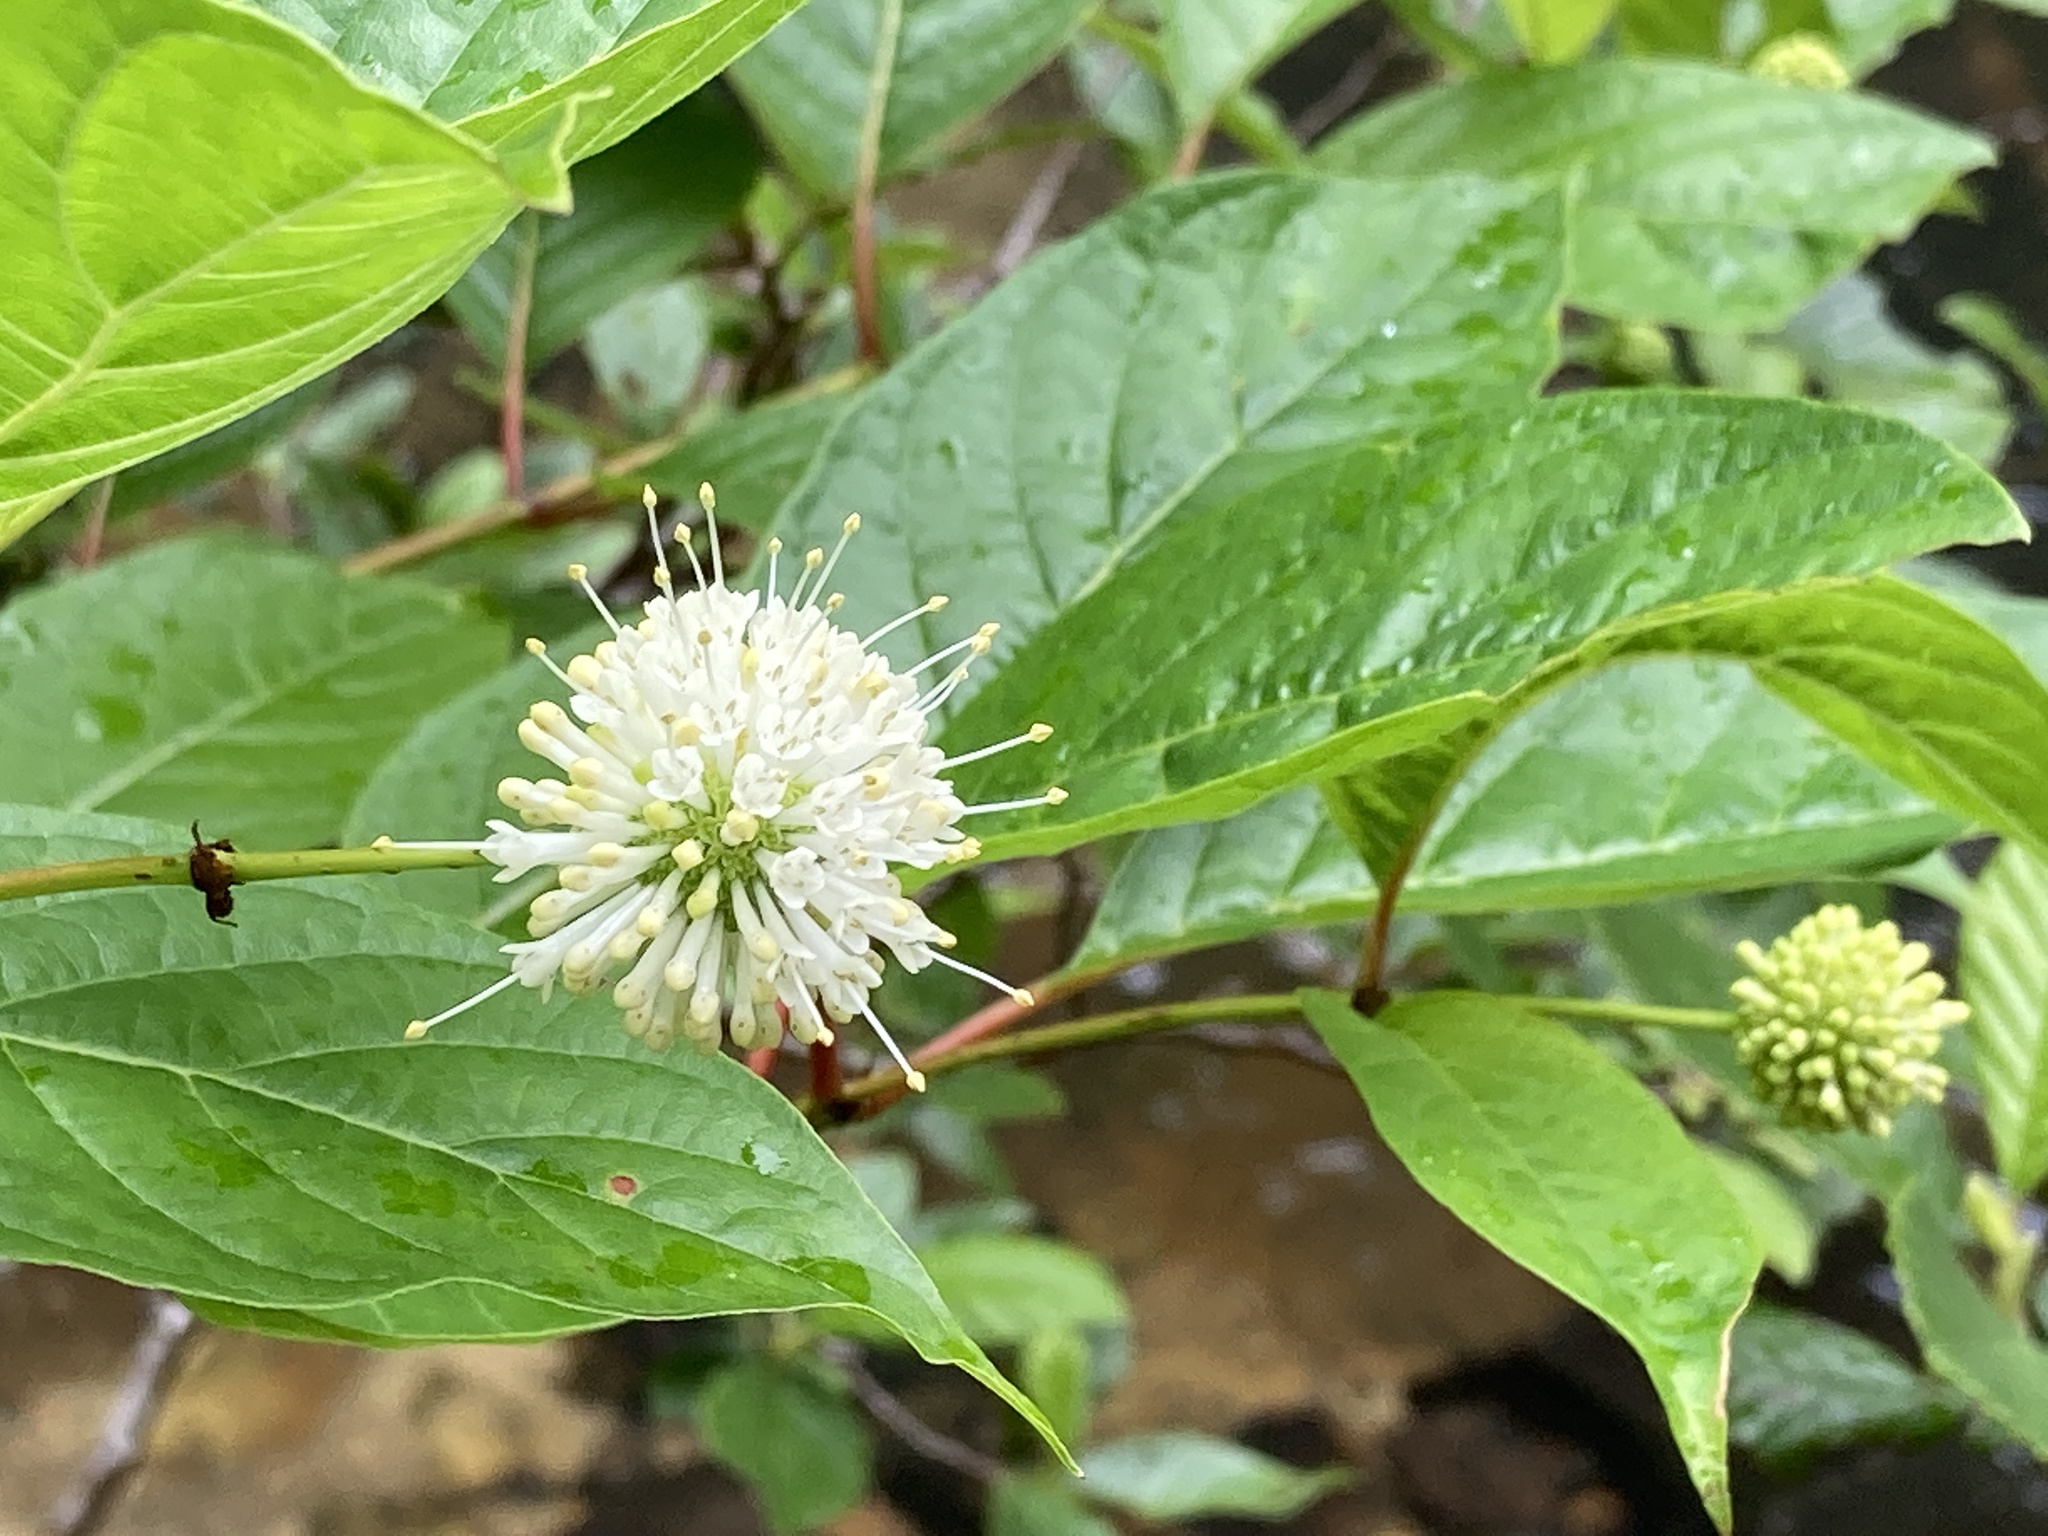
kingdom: Plantae
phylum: Tracheophyta
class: Magnoliopsida
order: Gentianales
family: Rubiaceae
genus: Cephalanthus
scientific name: Cephalanthus occidentalis
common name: Button-willow
